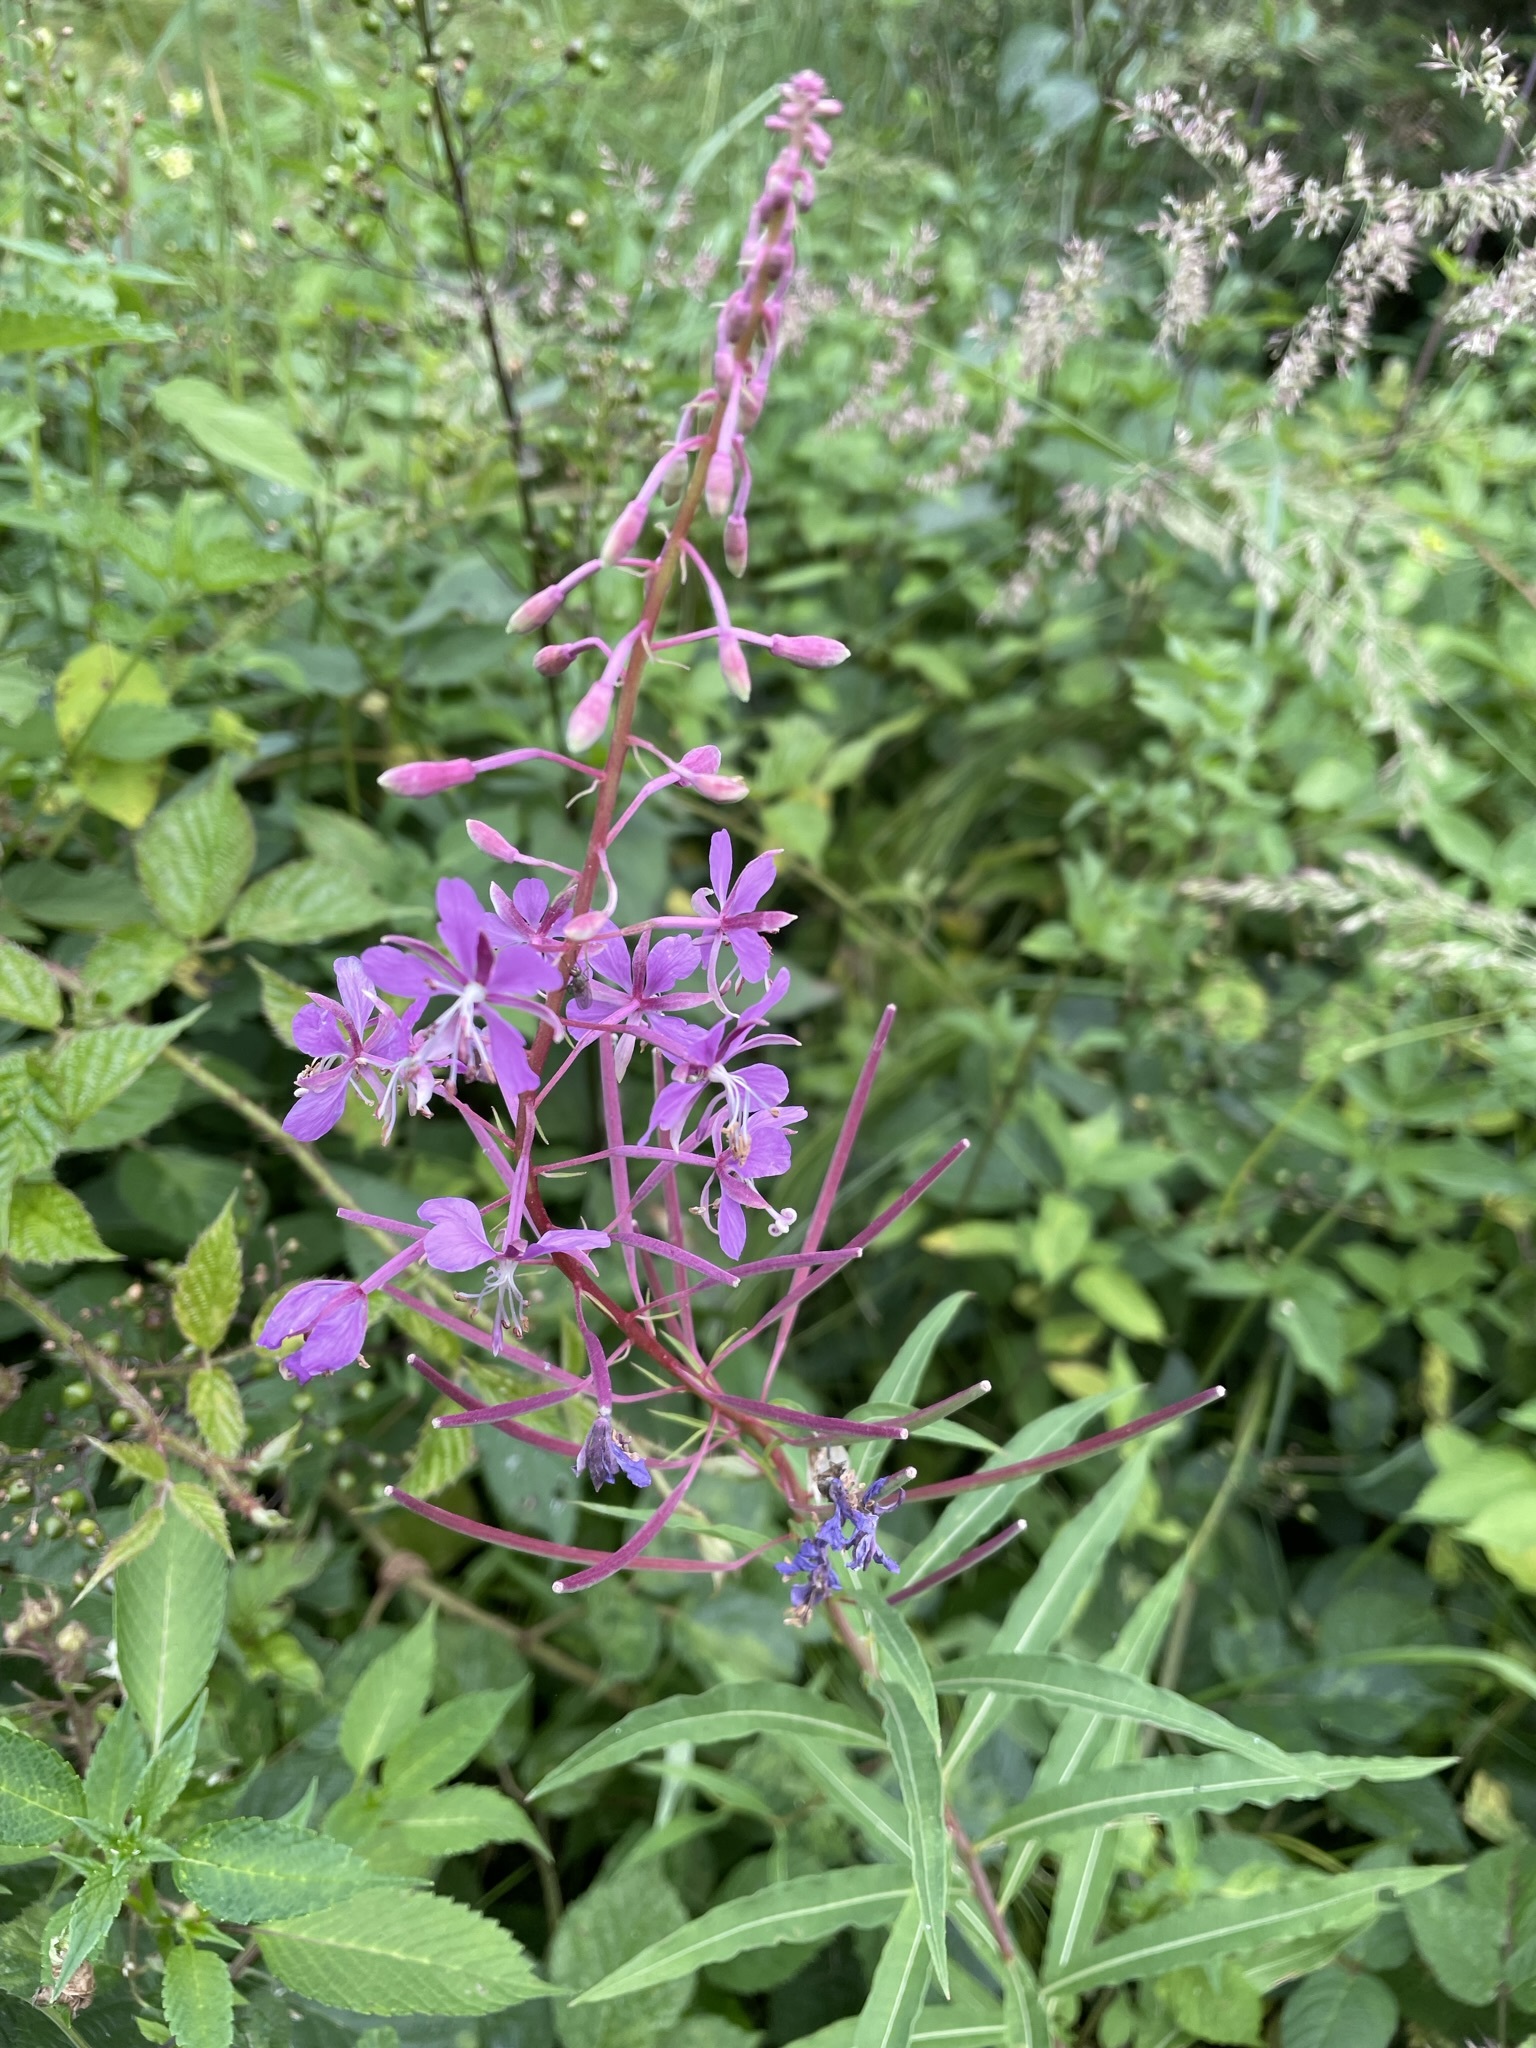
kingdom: Plantae
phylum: Tracheophyta
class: Magnoliopsida
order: Myrtales
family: Onagraceae
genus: Chamaenerion
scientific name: Chamaenerion angustifolium
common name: Fireweed
